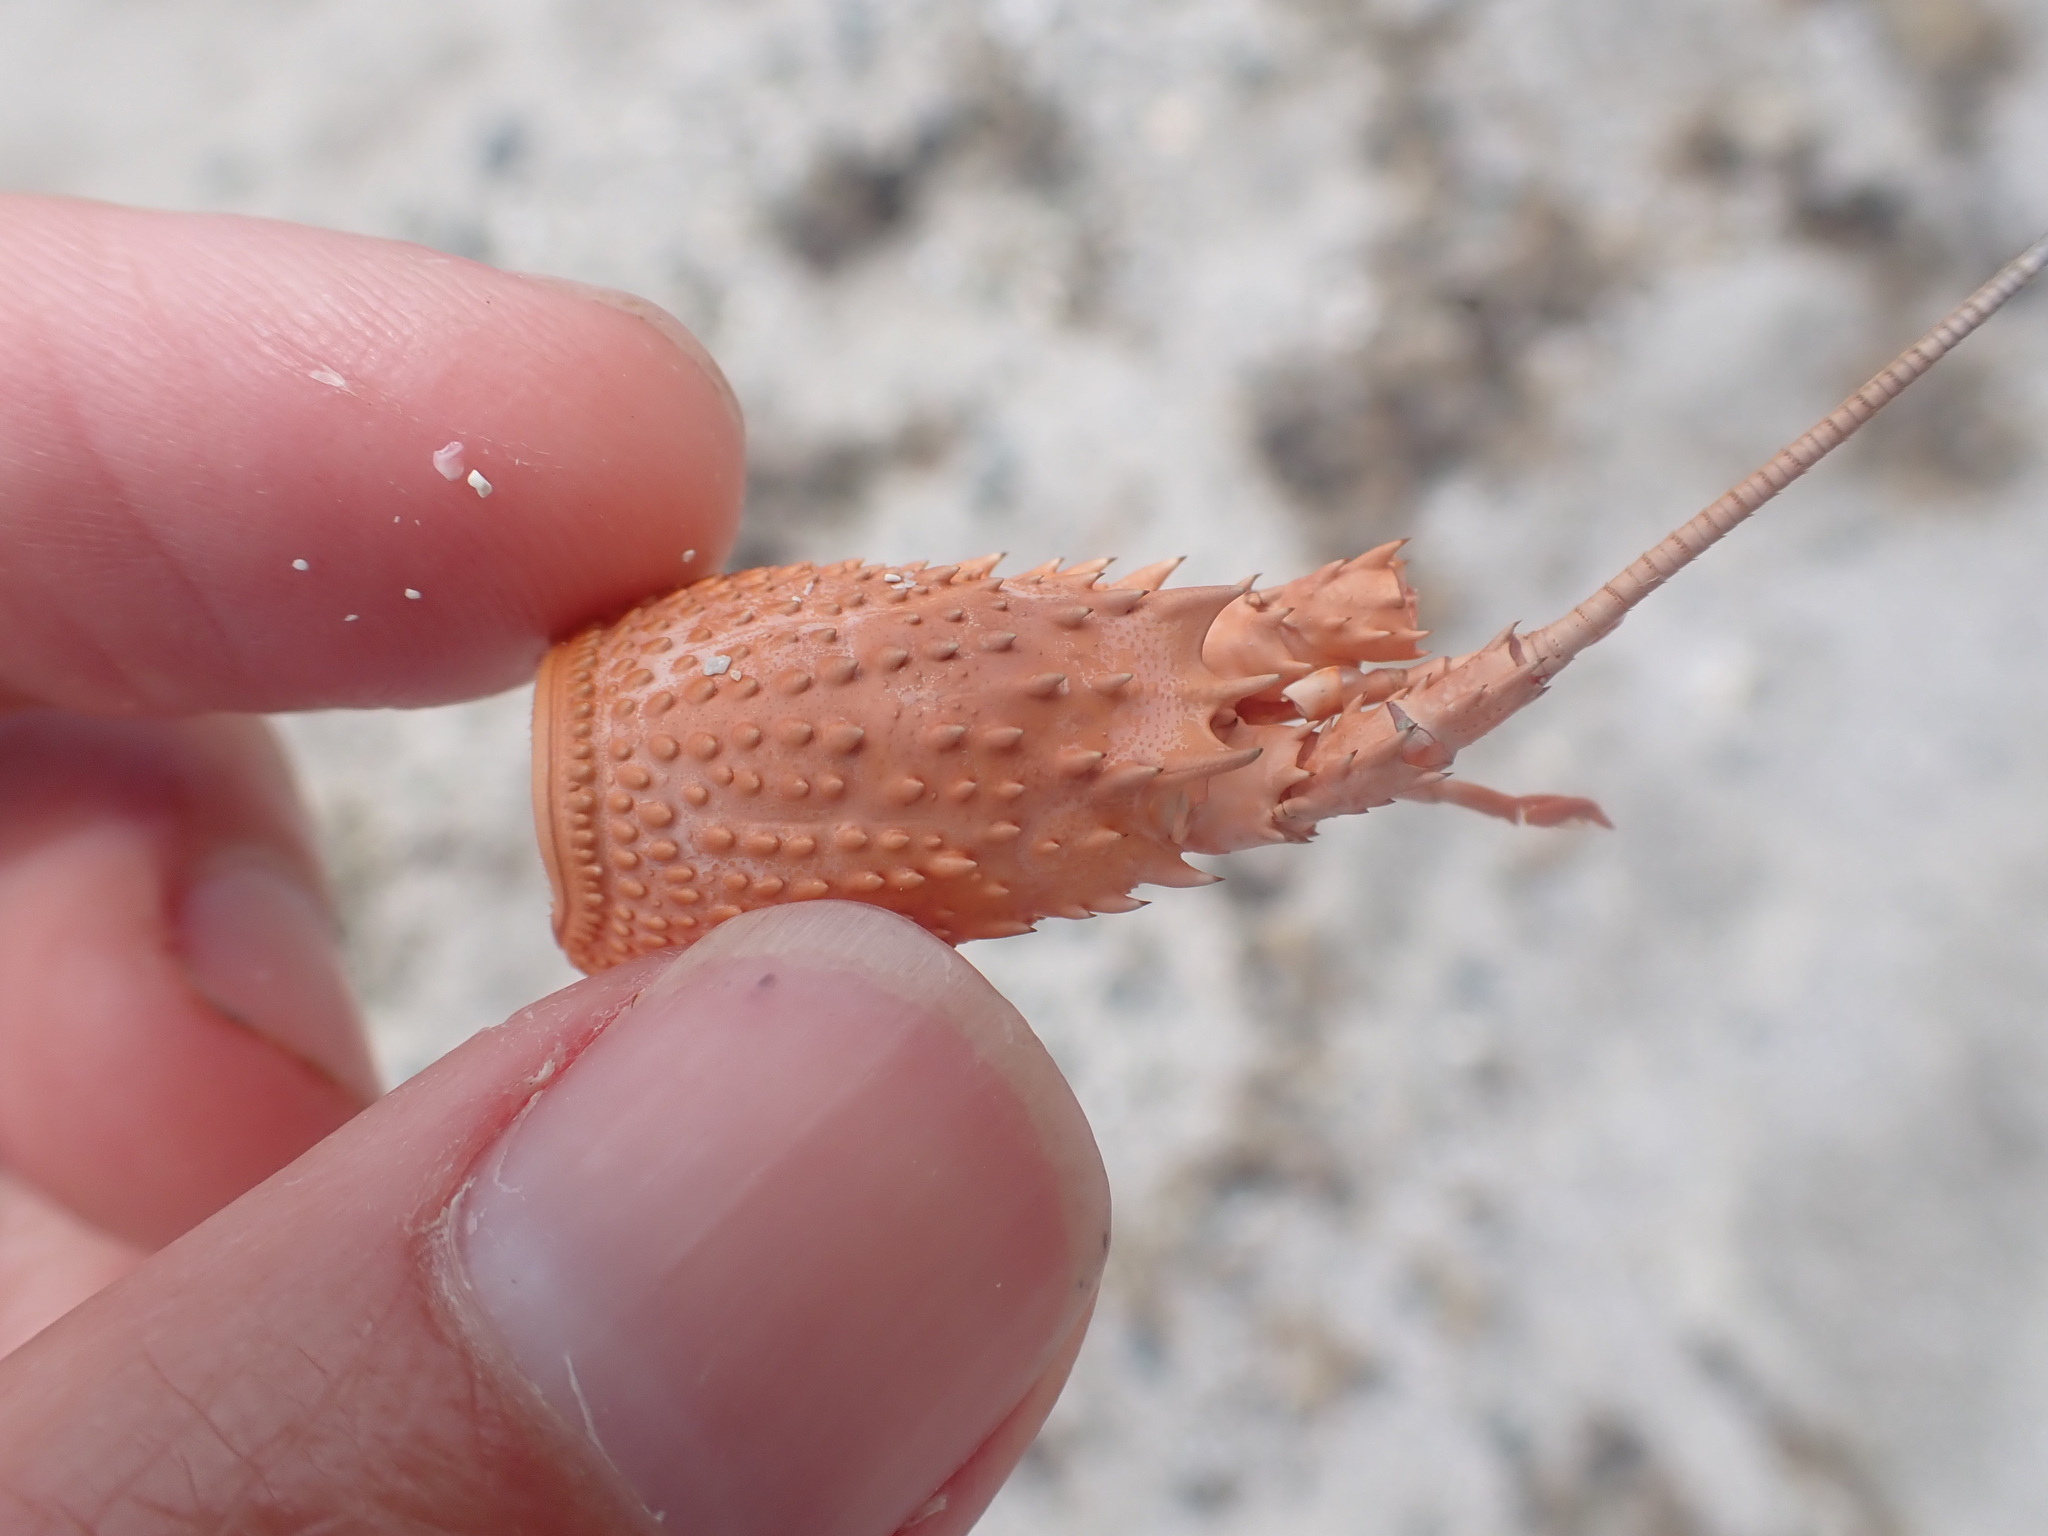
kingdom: Animalia
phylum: Arthropoda
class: Malacostraca
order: Decapoda
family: Palinuridae
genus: Sagmariasus
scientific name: Sagmariasus verreauxi
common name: Green rock lobster
